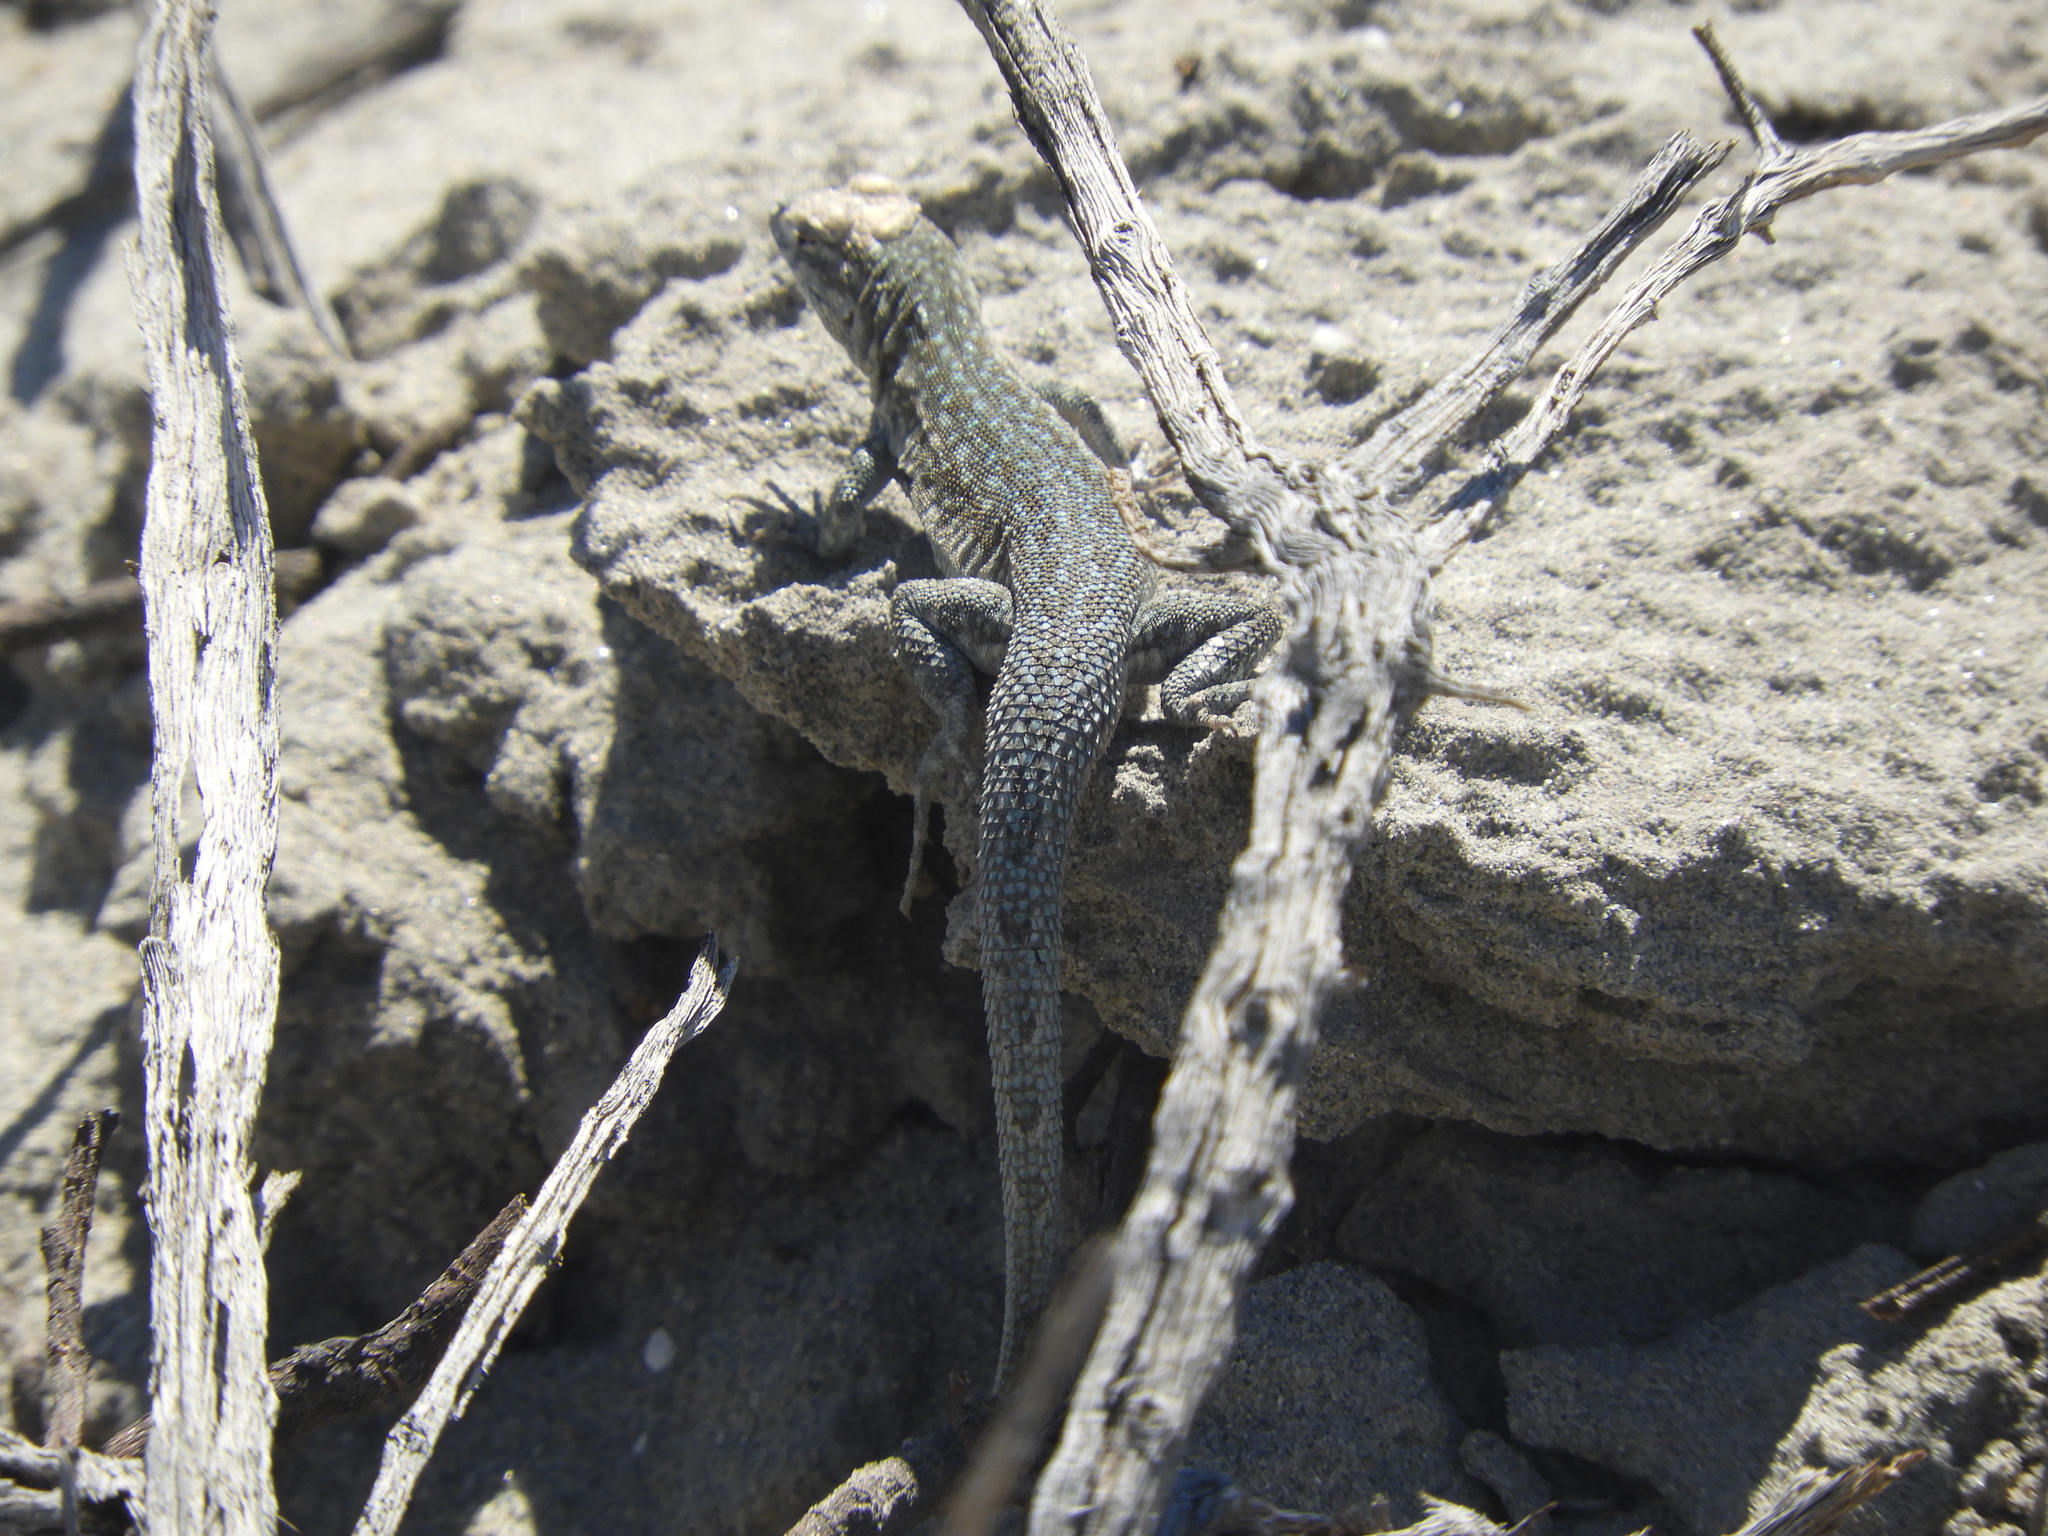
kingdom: Animalia
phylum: Chordata
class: Squamata
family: Phrynosomatidae
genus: Uta
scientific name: Uta stansburiana
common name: Side-blotched lizard
